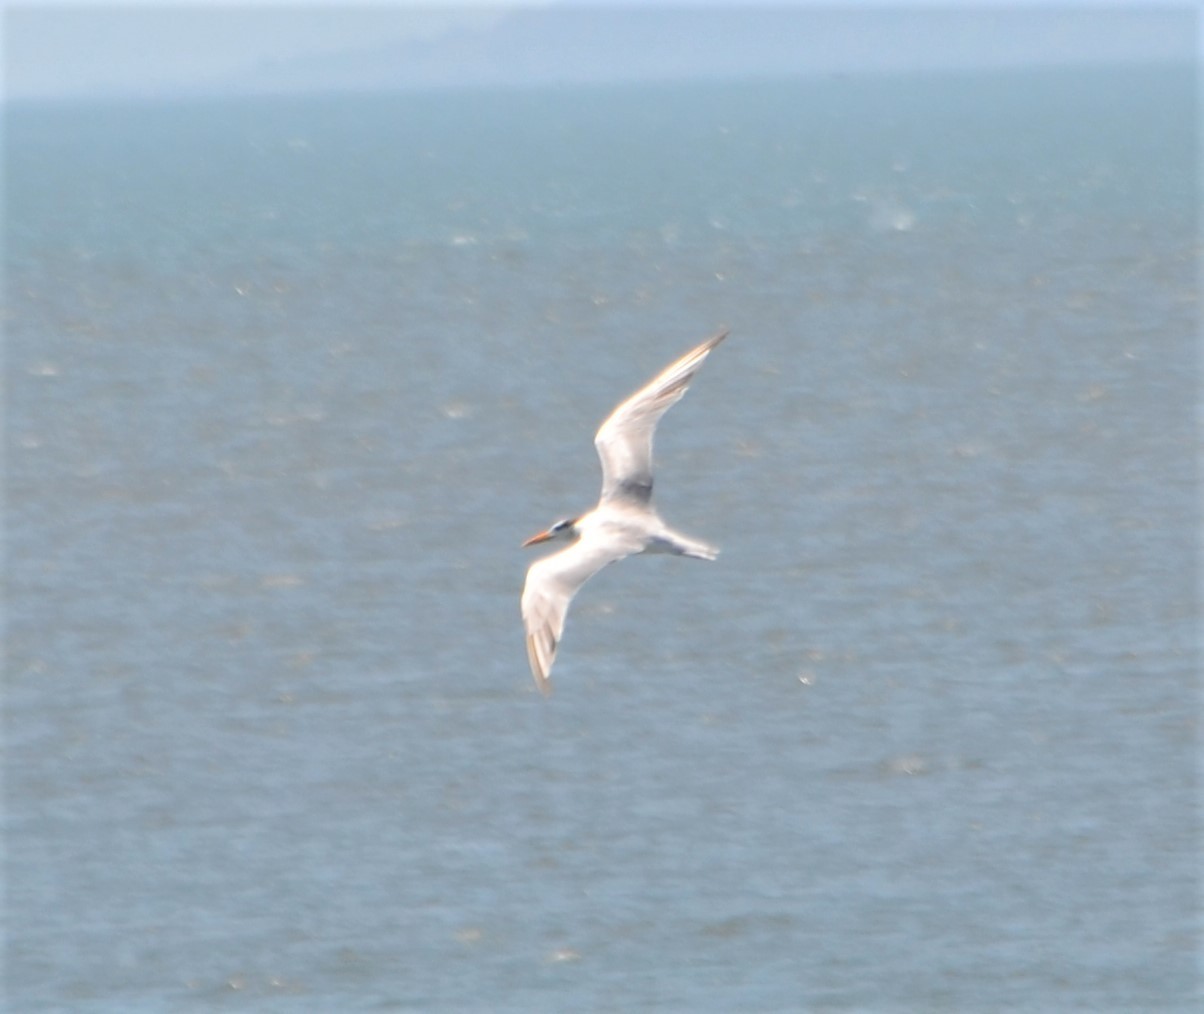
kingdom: Animalia
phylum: Chordata
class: Aves
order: Charadriiformes
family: Laridae
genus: Thalasseus
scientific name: Thalasseus maximus
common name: Royal tern
